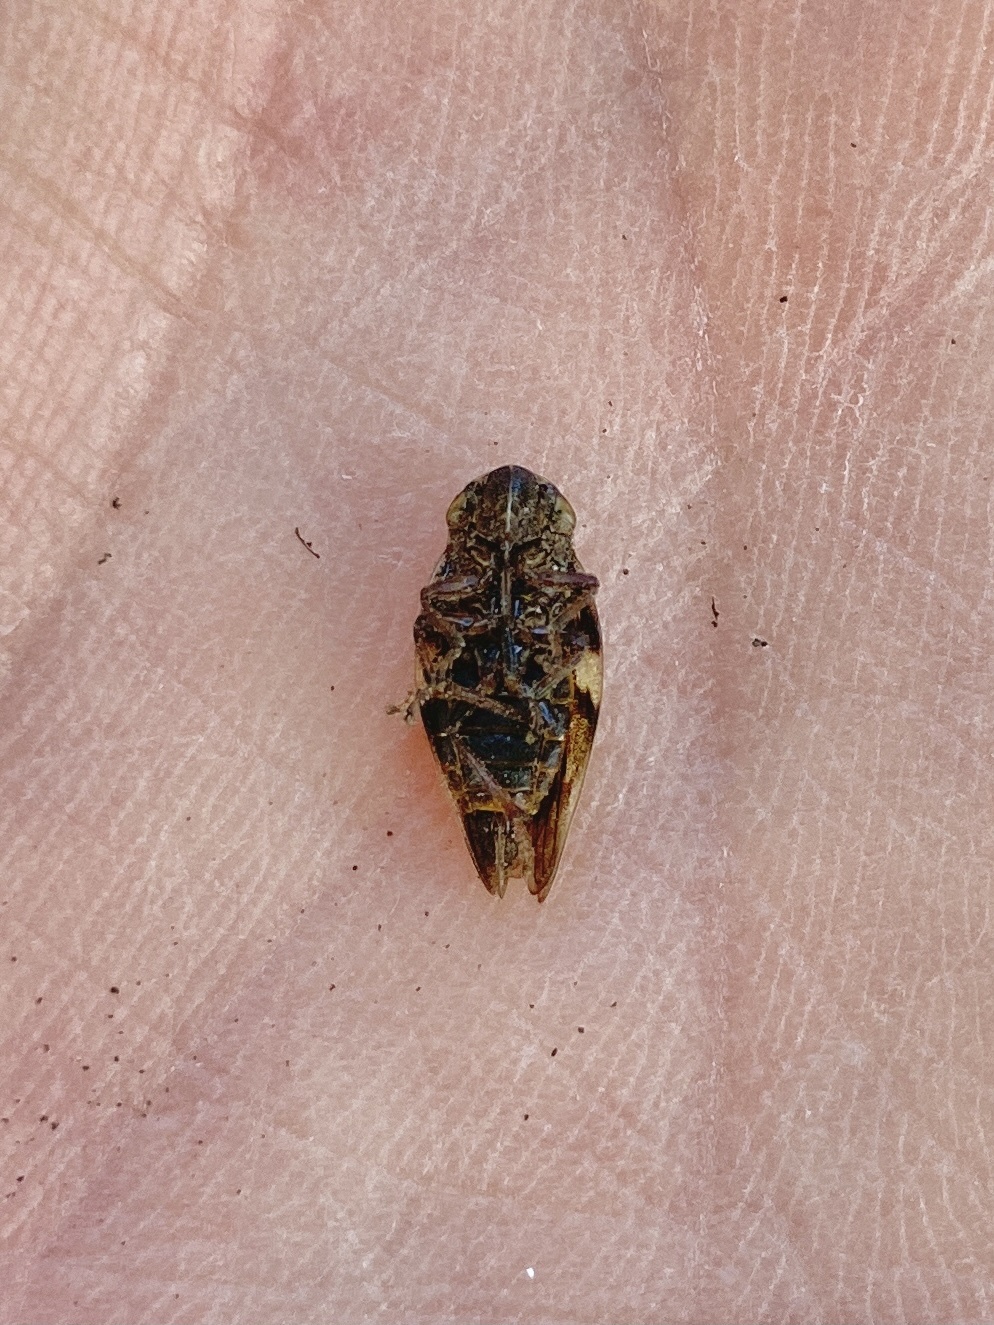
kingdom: Animalia
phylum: Arthropoda
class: Insecta
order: Hemiptera
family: Aphrophoridae
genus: Aphrophora
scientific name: Aphrophora alni
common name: European alder spittlebug
